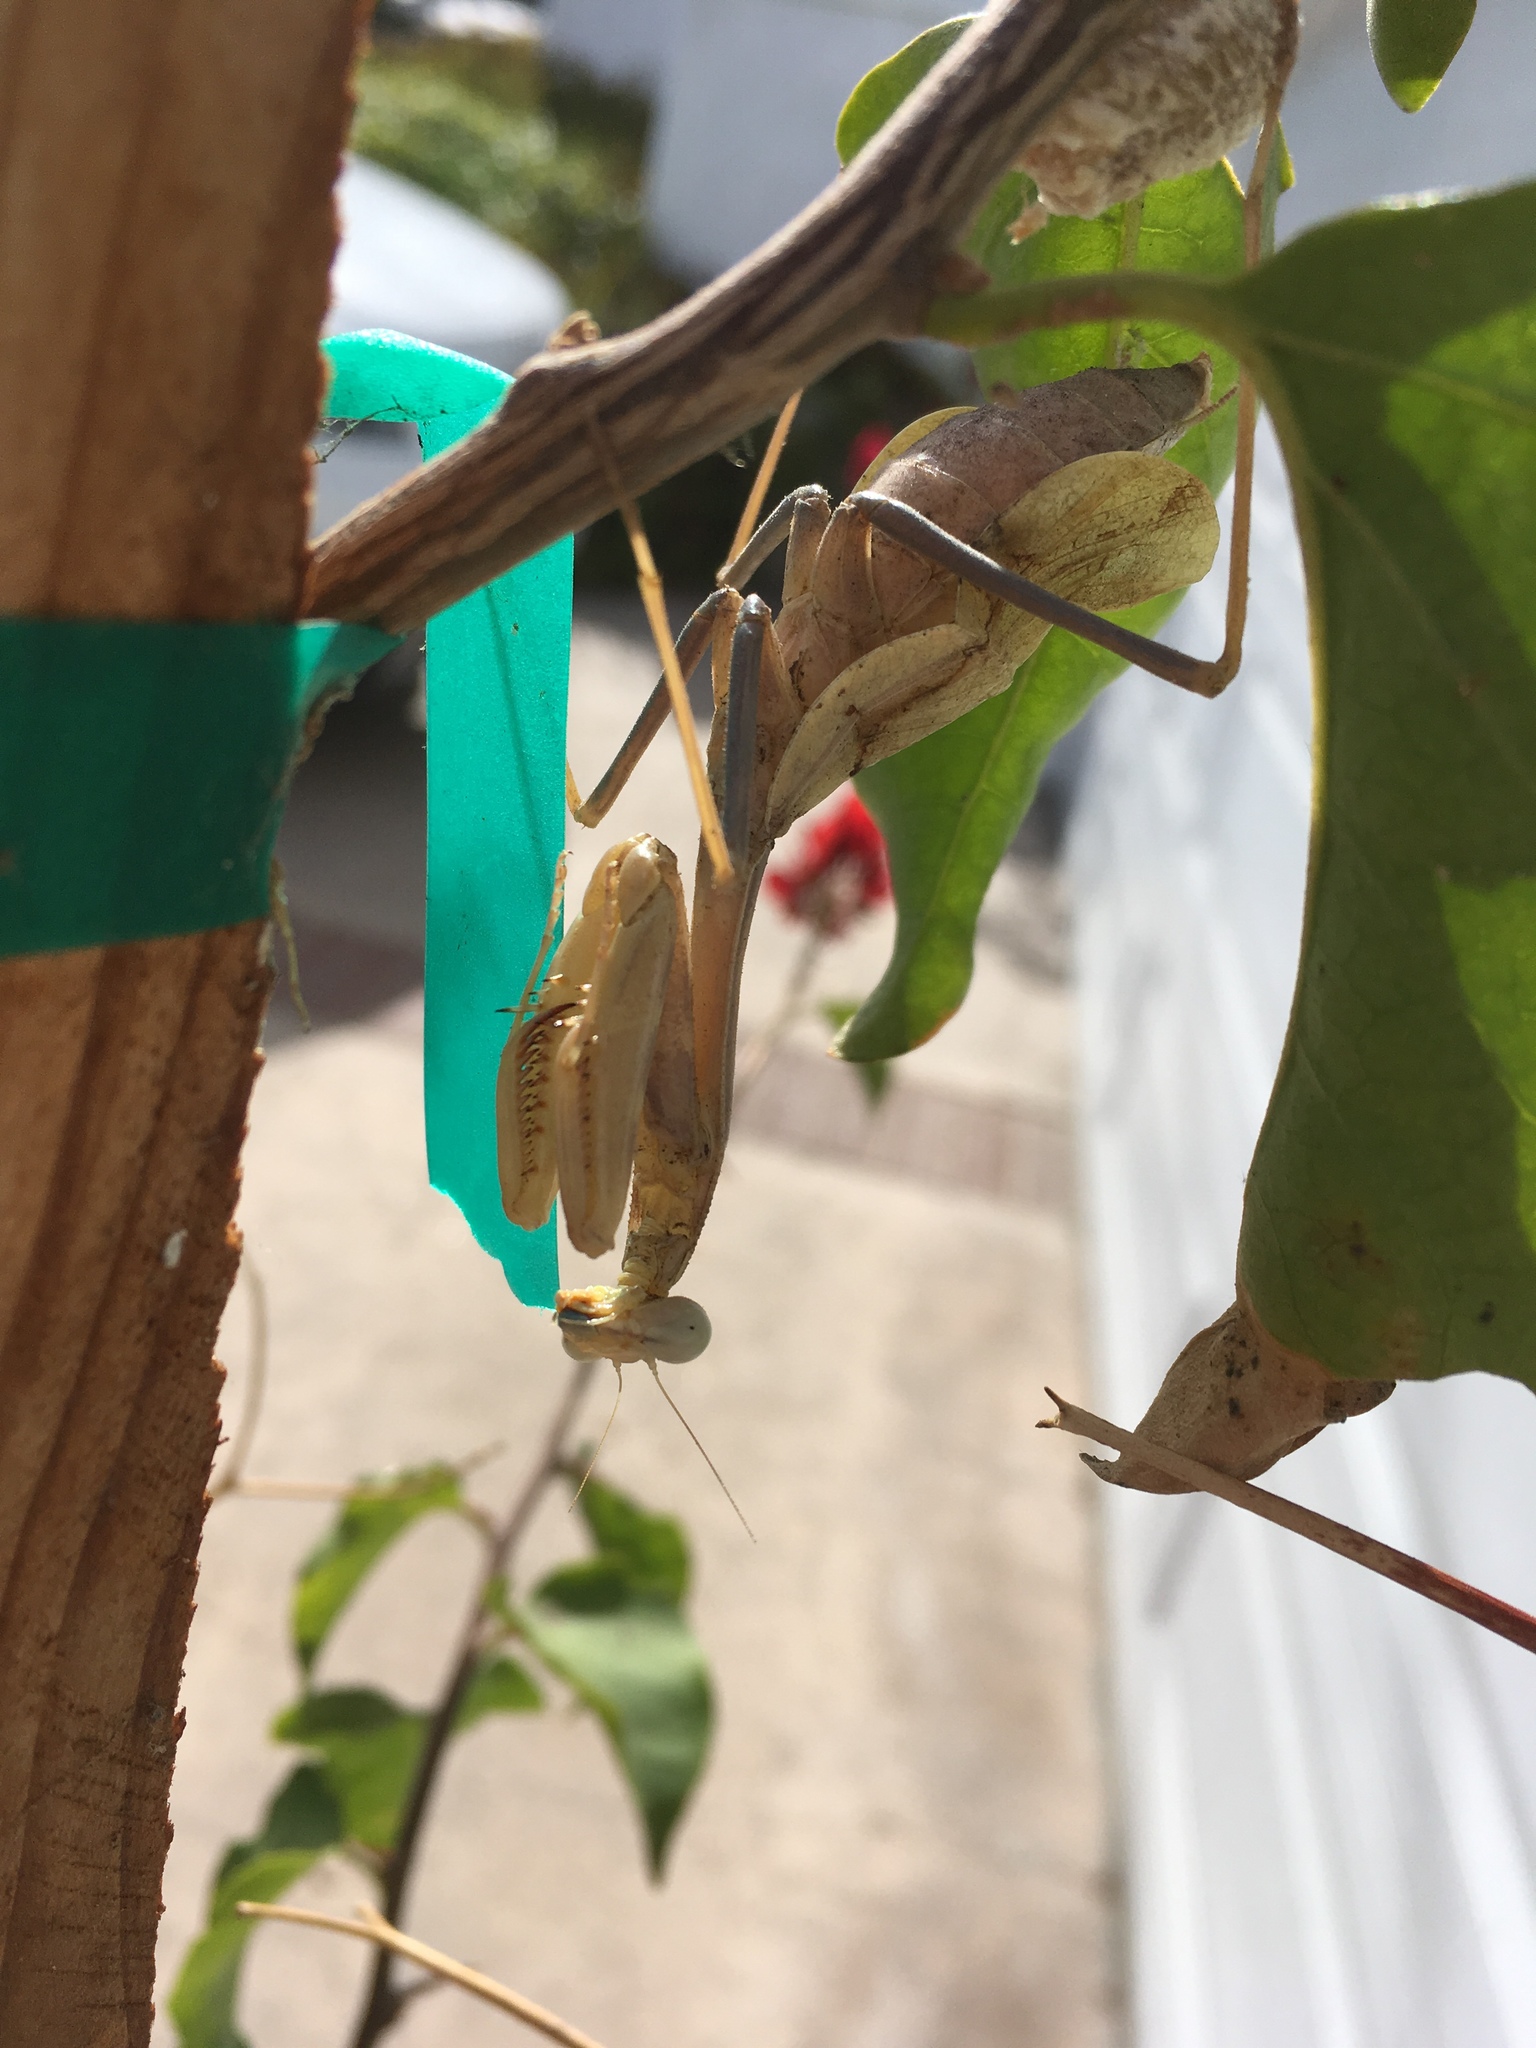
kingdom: Animalia
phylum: Arthropoda
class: Insecta
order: Mantodea
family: Mantidae
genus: Stagmomantis
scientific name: Stagmomantis limbata
